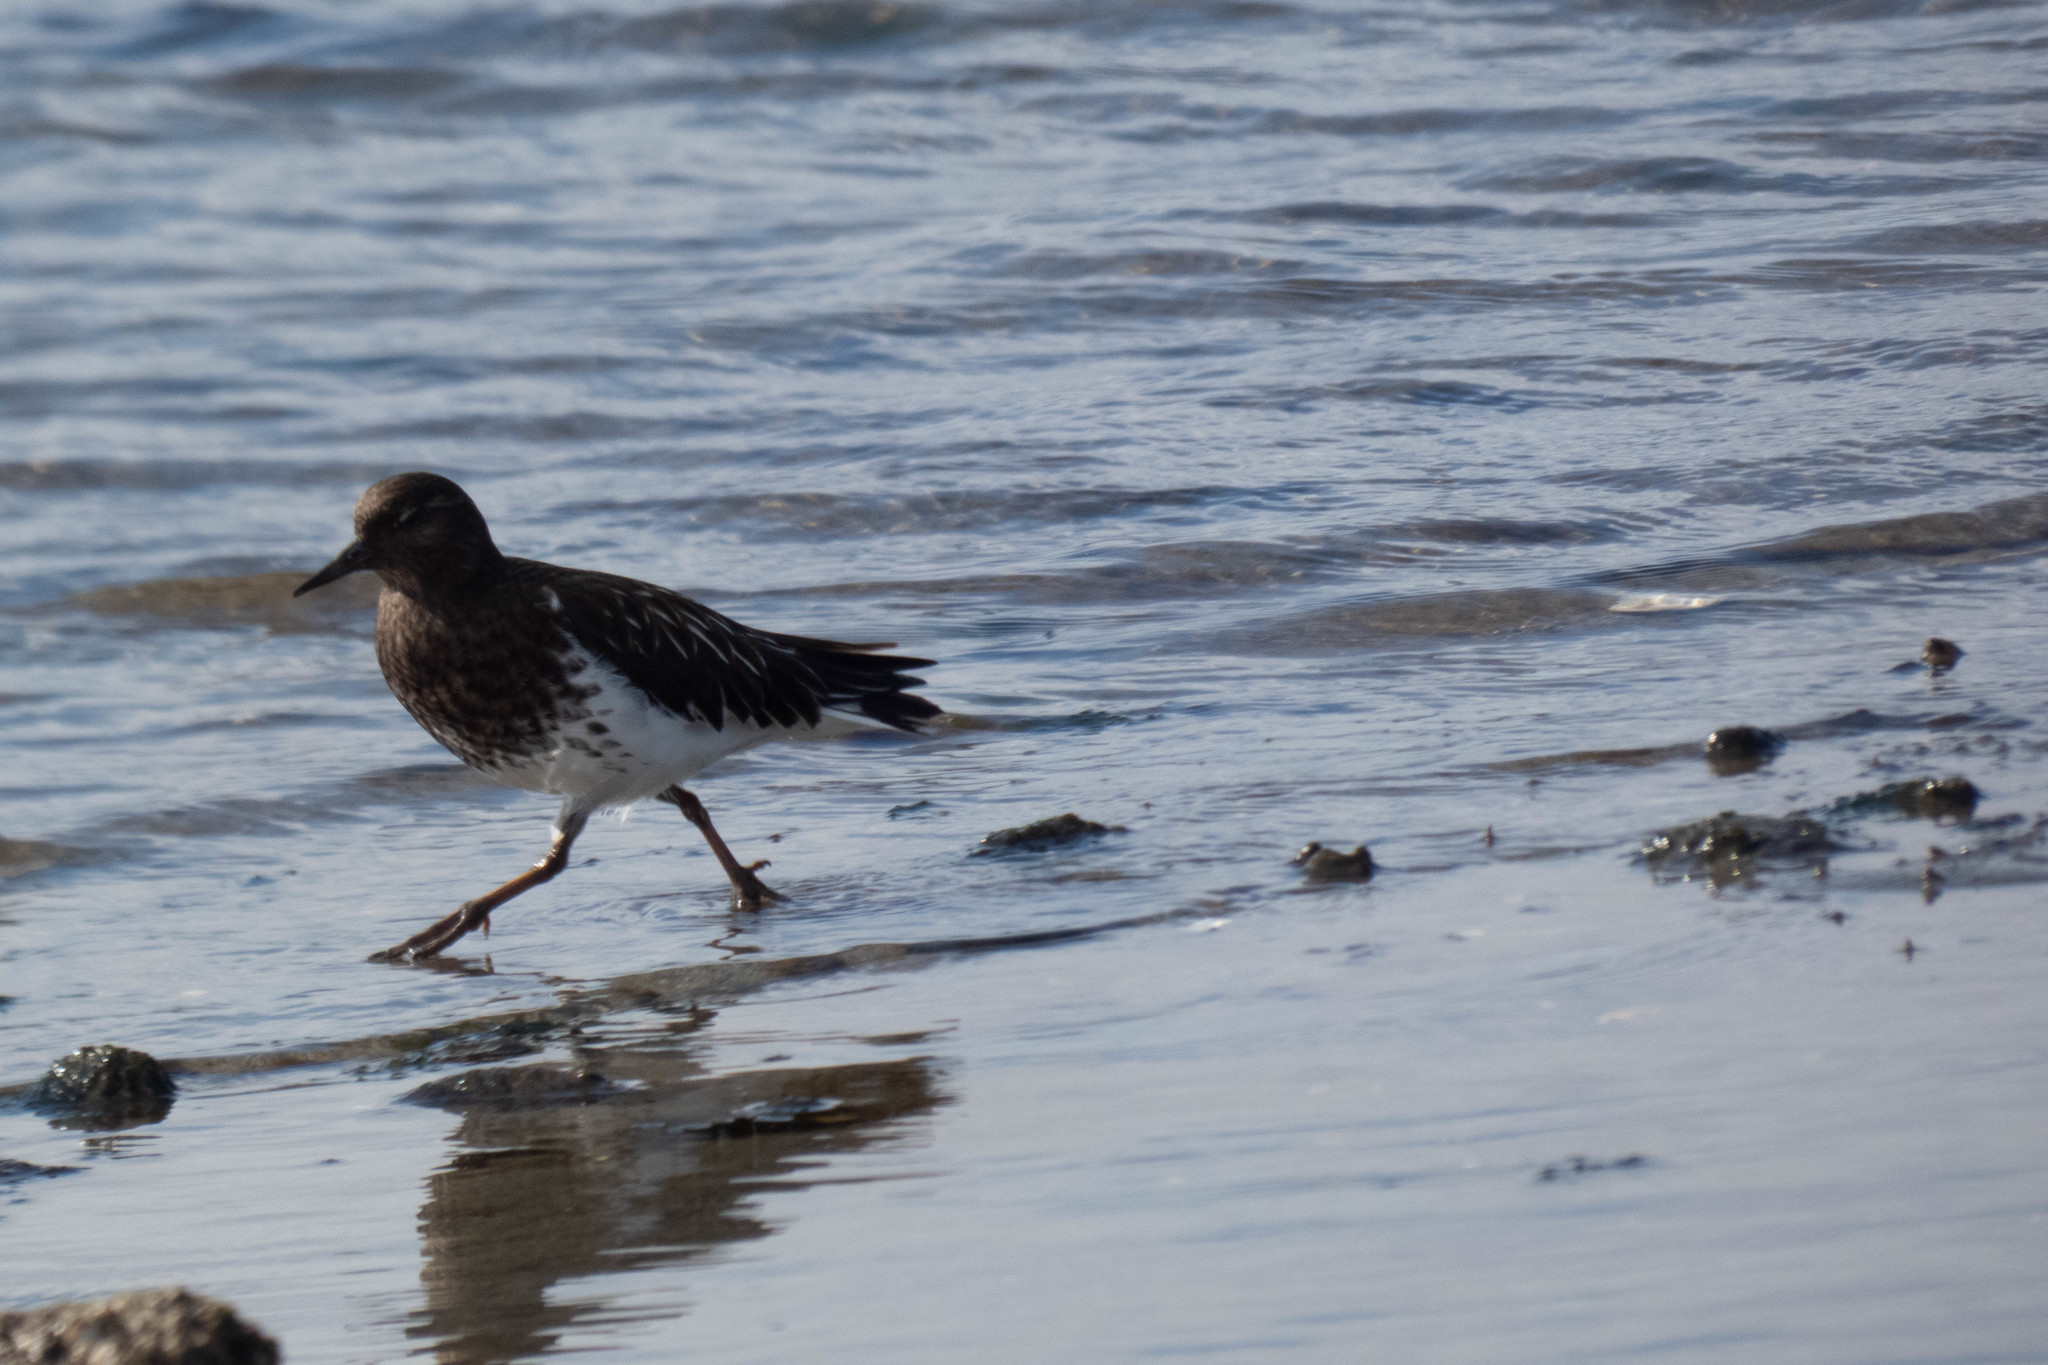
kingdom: Animalia
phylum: Chordata
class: Aves
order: Charadriiformes
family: Scolopacidae
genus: Arenaria
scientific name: Arenaria melanocephala
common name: Black turnstone
